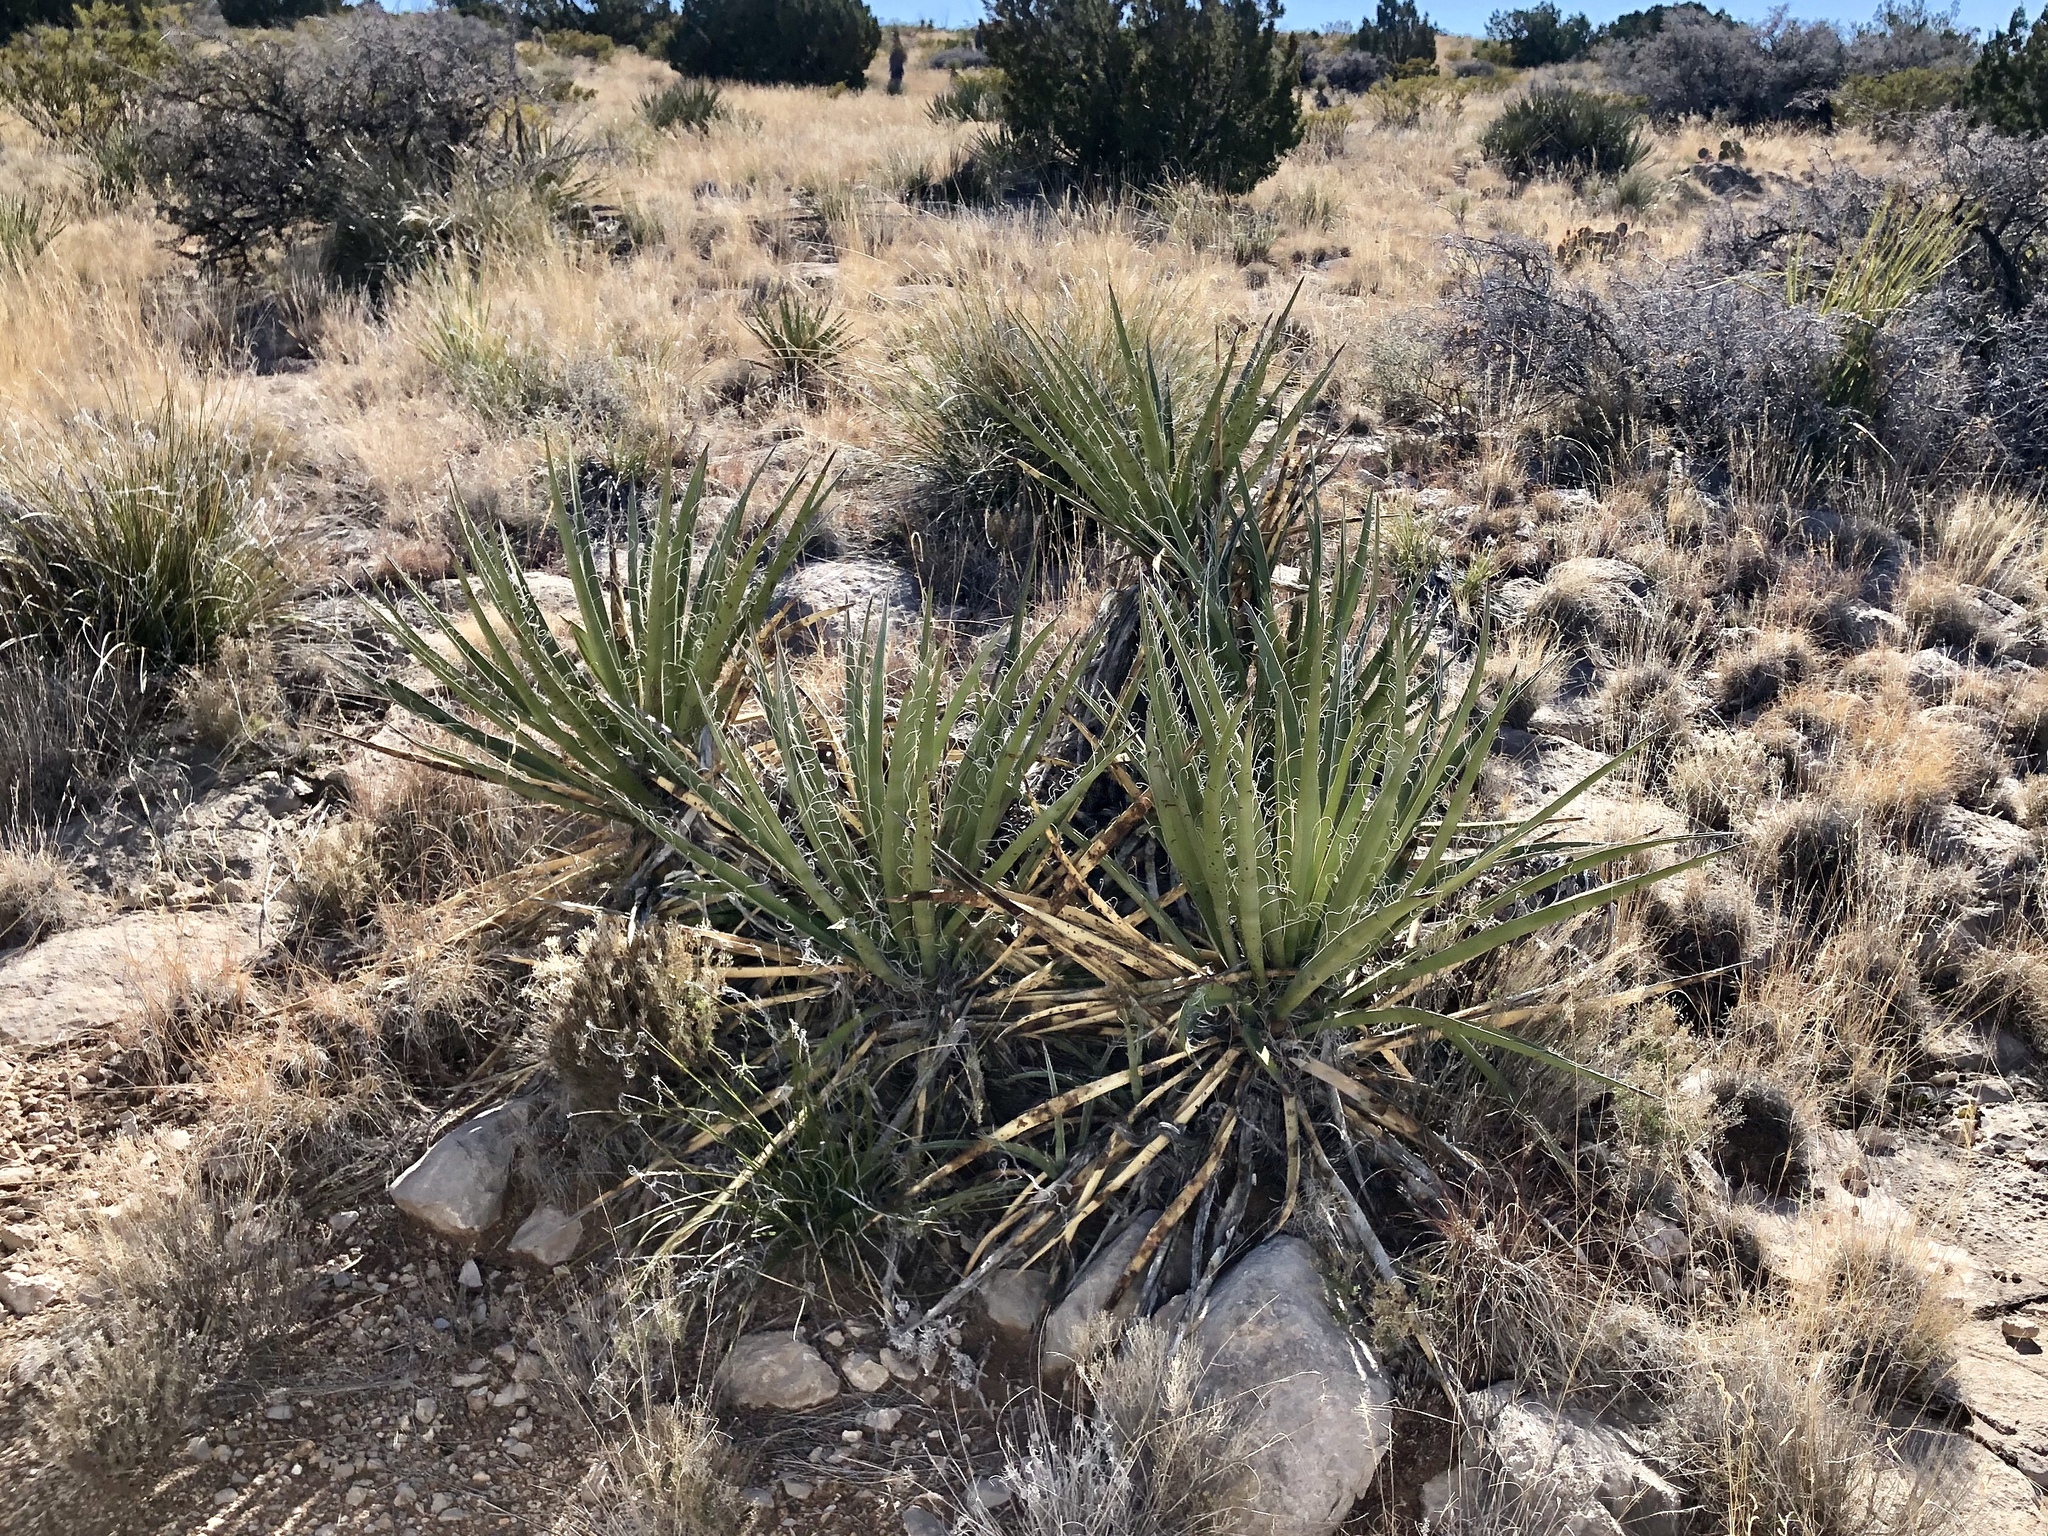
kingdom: Plantae
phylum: Tracheophyta
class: Liliopsida
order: Asparagales
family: Asparagaceae
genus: Yucca
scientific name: Yucca baccata
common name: Banana yucca
